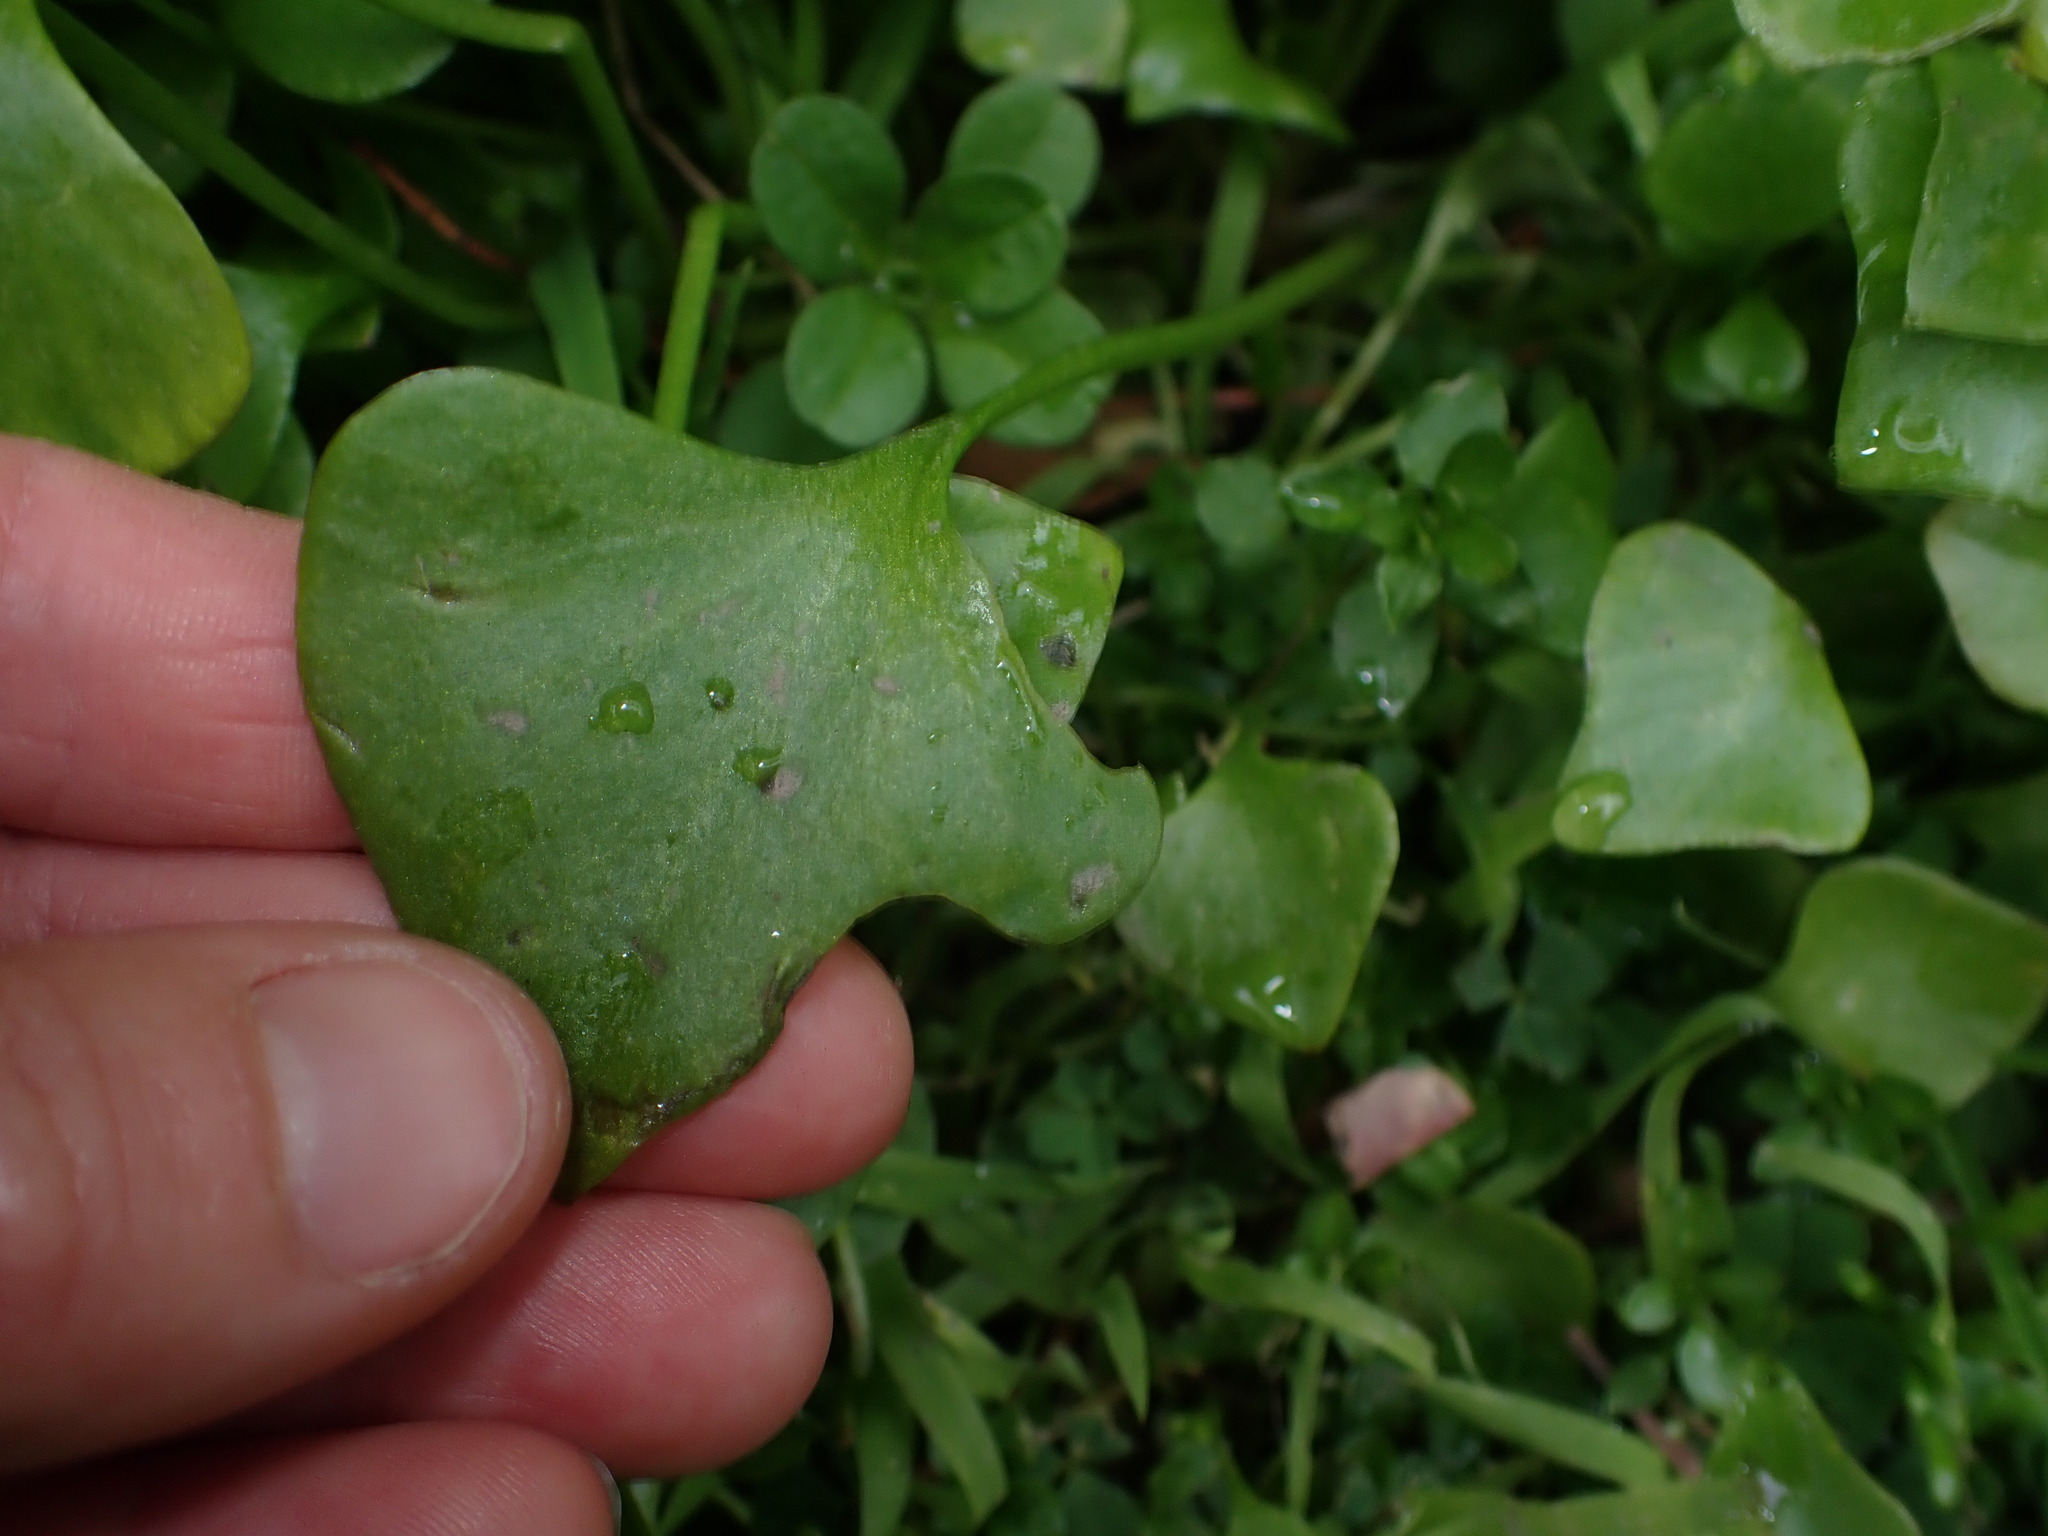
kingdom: Plantae
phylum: Tracheophyta
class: Magnoliopsida
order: Caryophyllales
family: Montiaceae
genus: Claytonia
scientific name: Claytonia perfoliata
